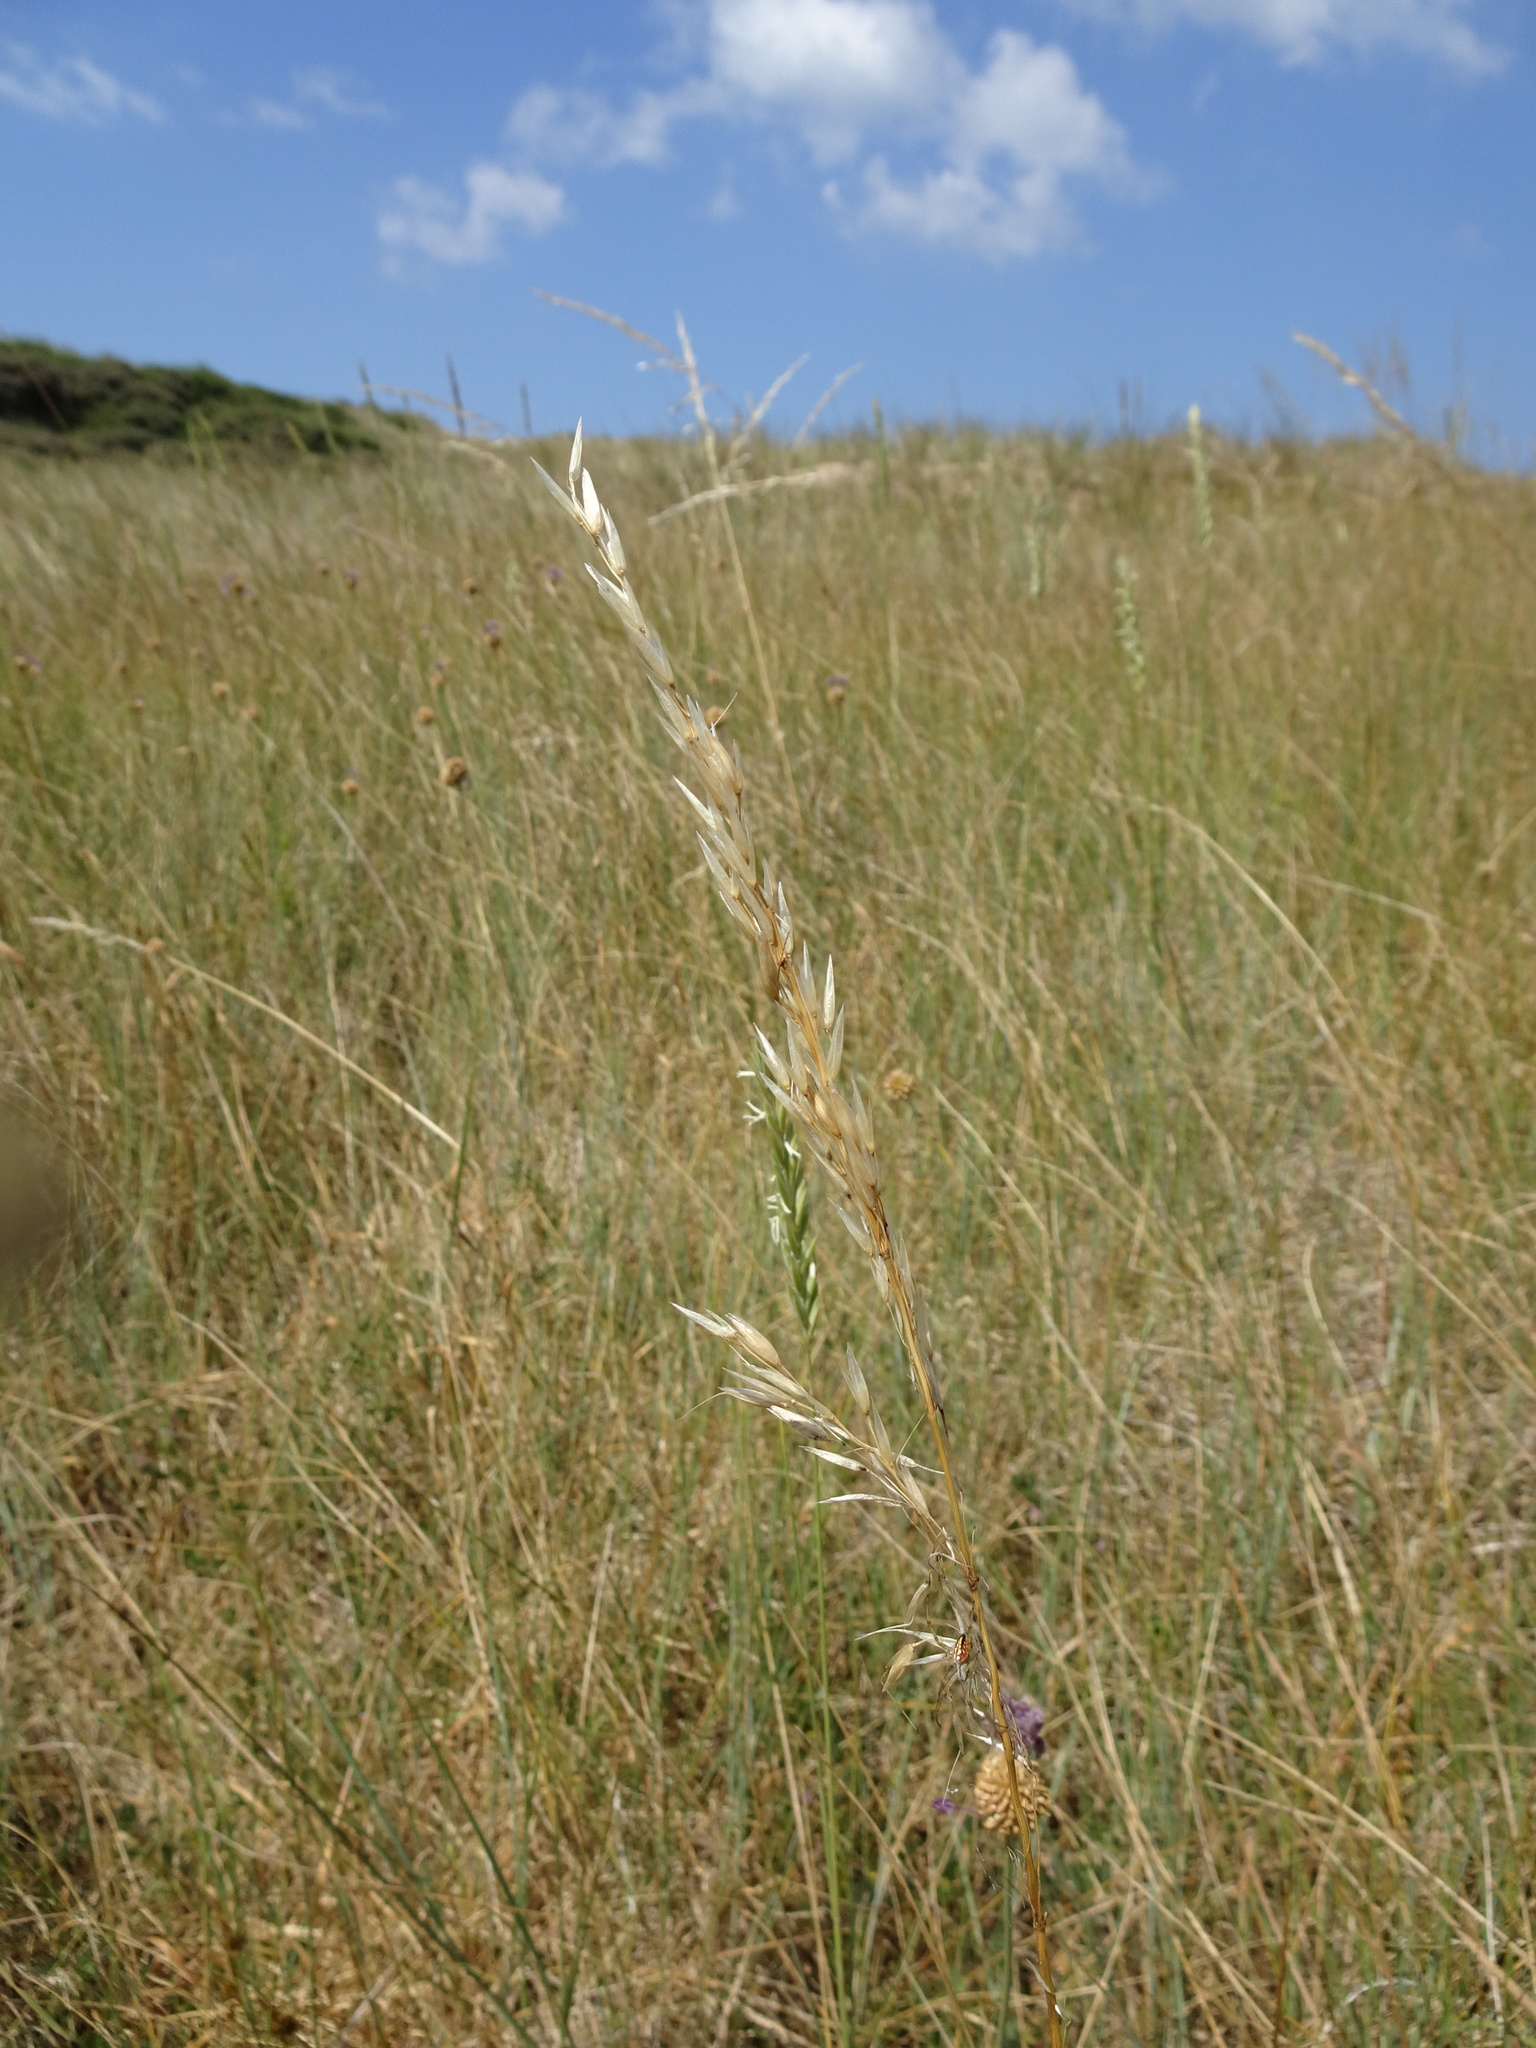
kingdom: Plantae
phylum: Tracheophyta
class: Liliopsida
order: Poales
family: Poaceae
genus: Arrhenatherum
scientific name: Arrhenatherum elatius
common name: Tall oatgrass
